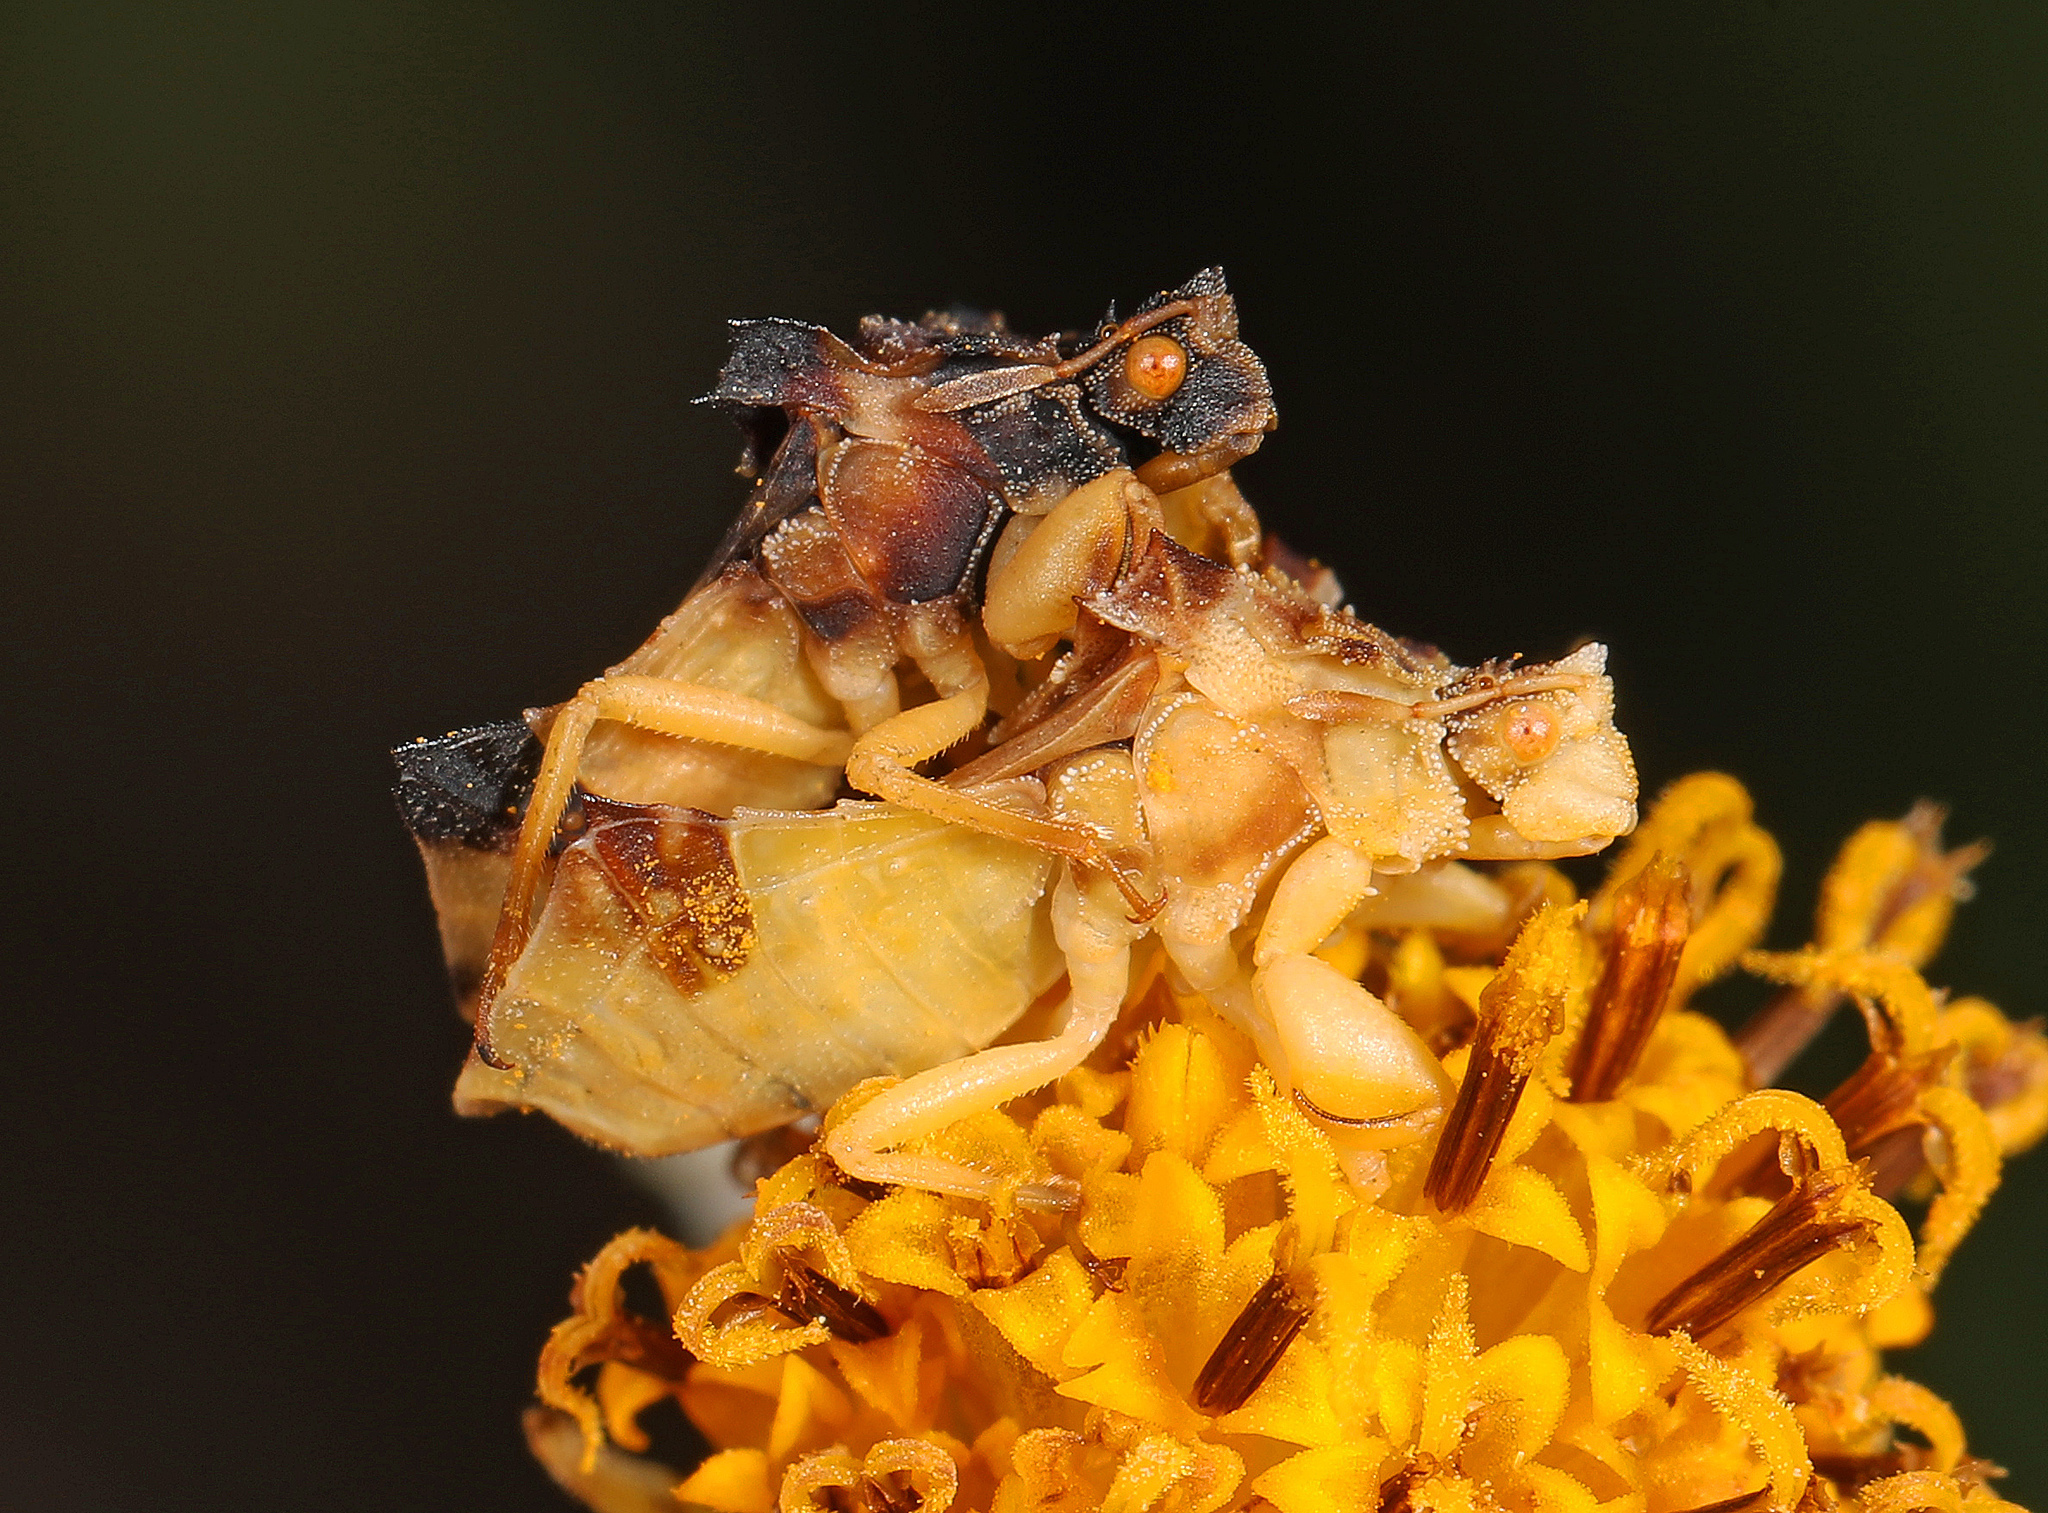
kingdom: Animalia
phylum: Arthropoda
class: Insecta
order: Hemiptera
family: Reduviidae
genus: Phymata
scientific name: Phymata
